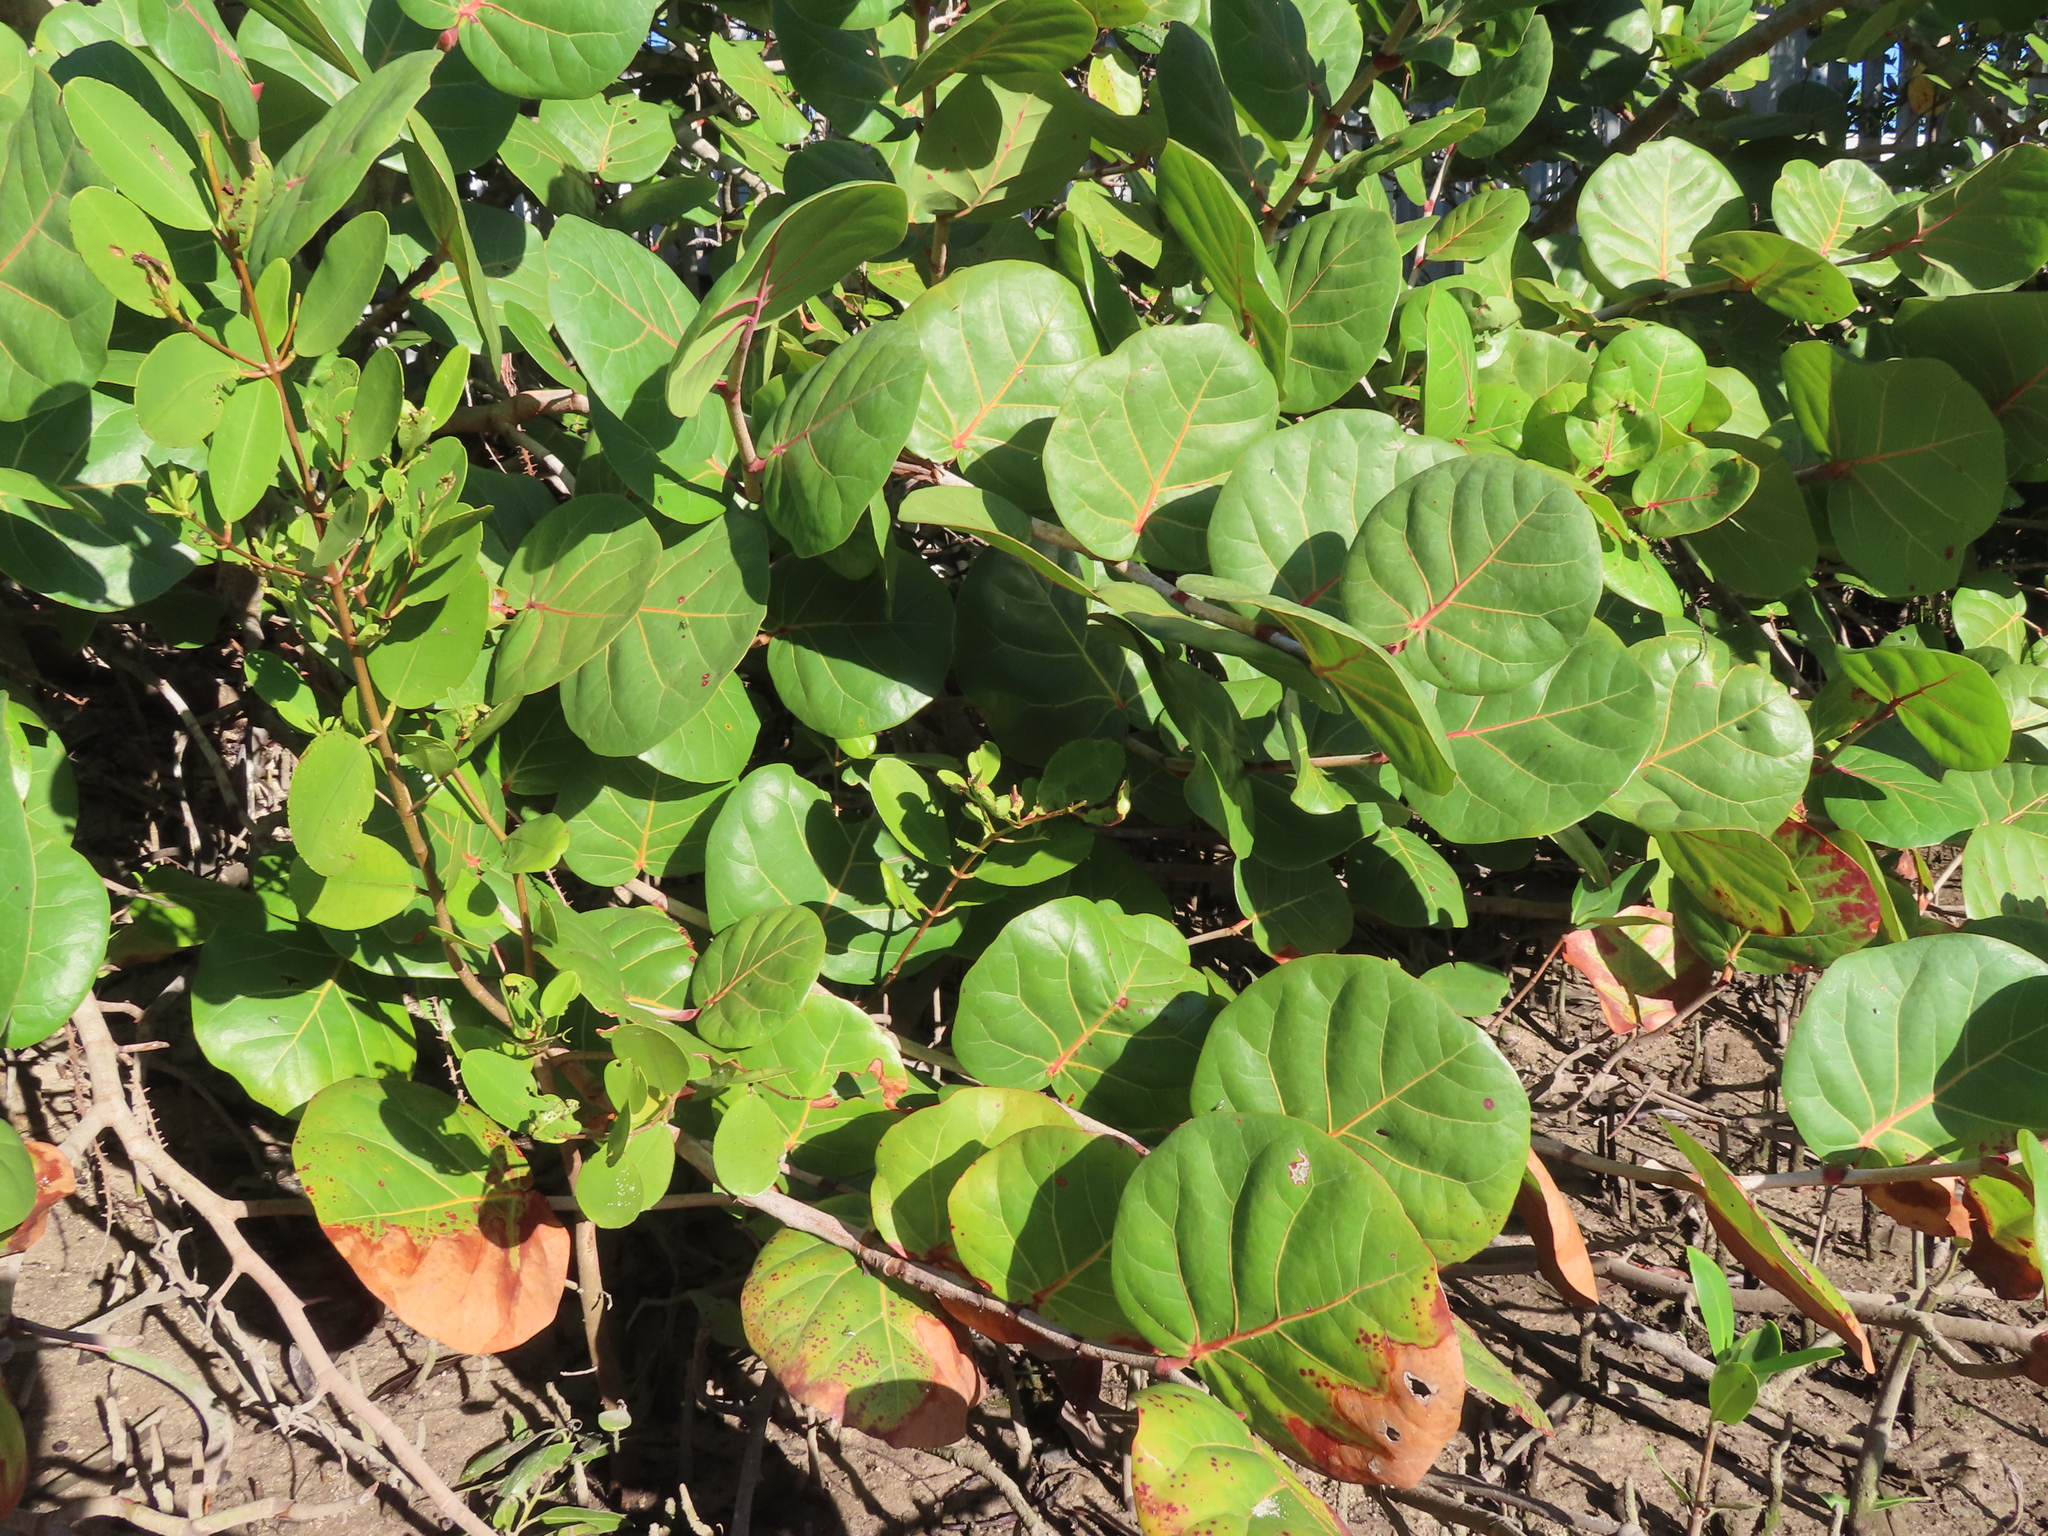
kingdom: Plantae
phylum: Tracheophyta
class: Magnoliopsida
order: Caryophyllales
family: Polygonaceae
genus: Coccoloba
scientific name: Coccoloba uvifera
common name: Seagrape
